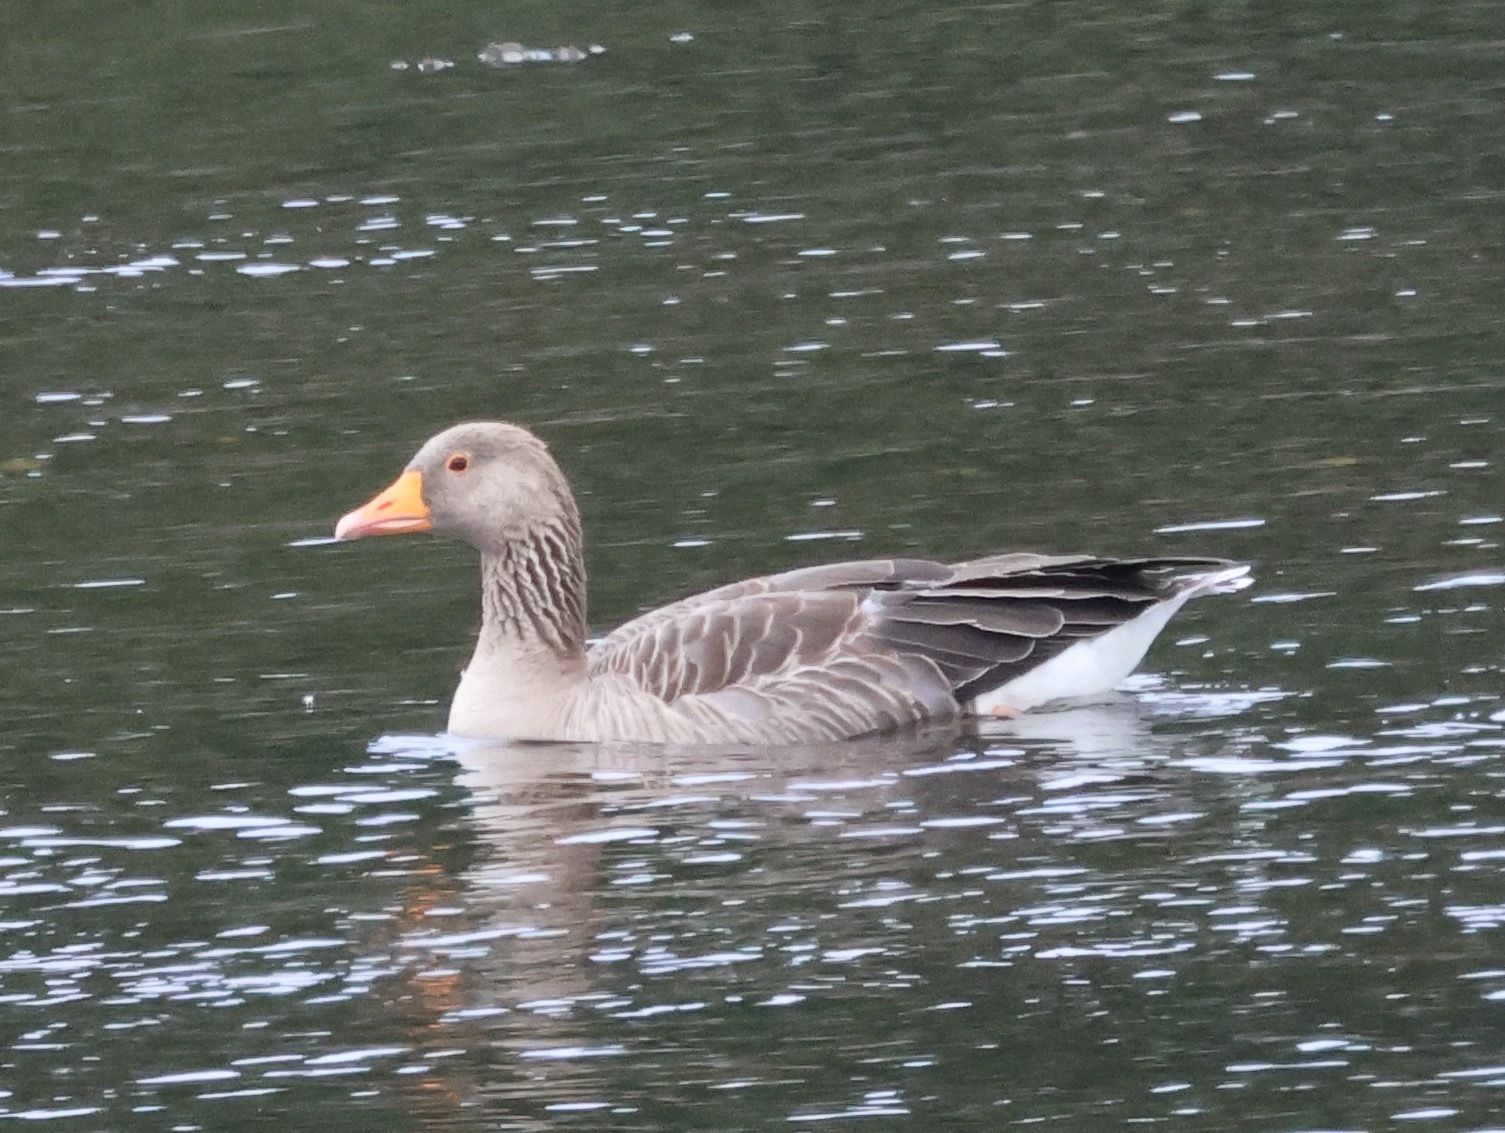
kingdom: Animalia
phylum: Chordata
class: Aves
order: Anseriformes
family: Anatidae
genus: Anser
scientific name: Anser anser
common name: Greylag goose
